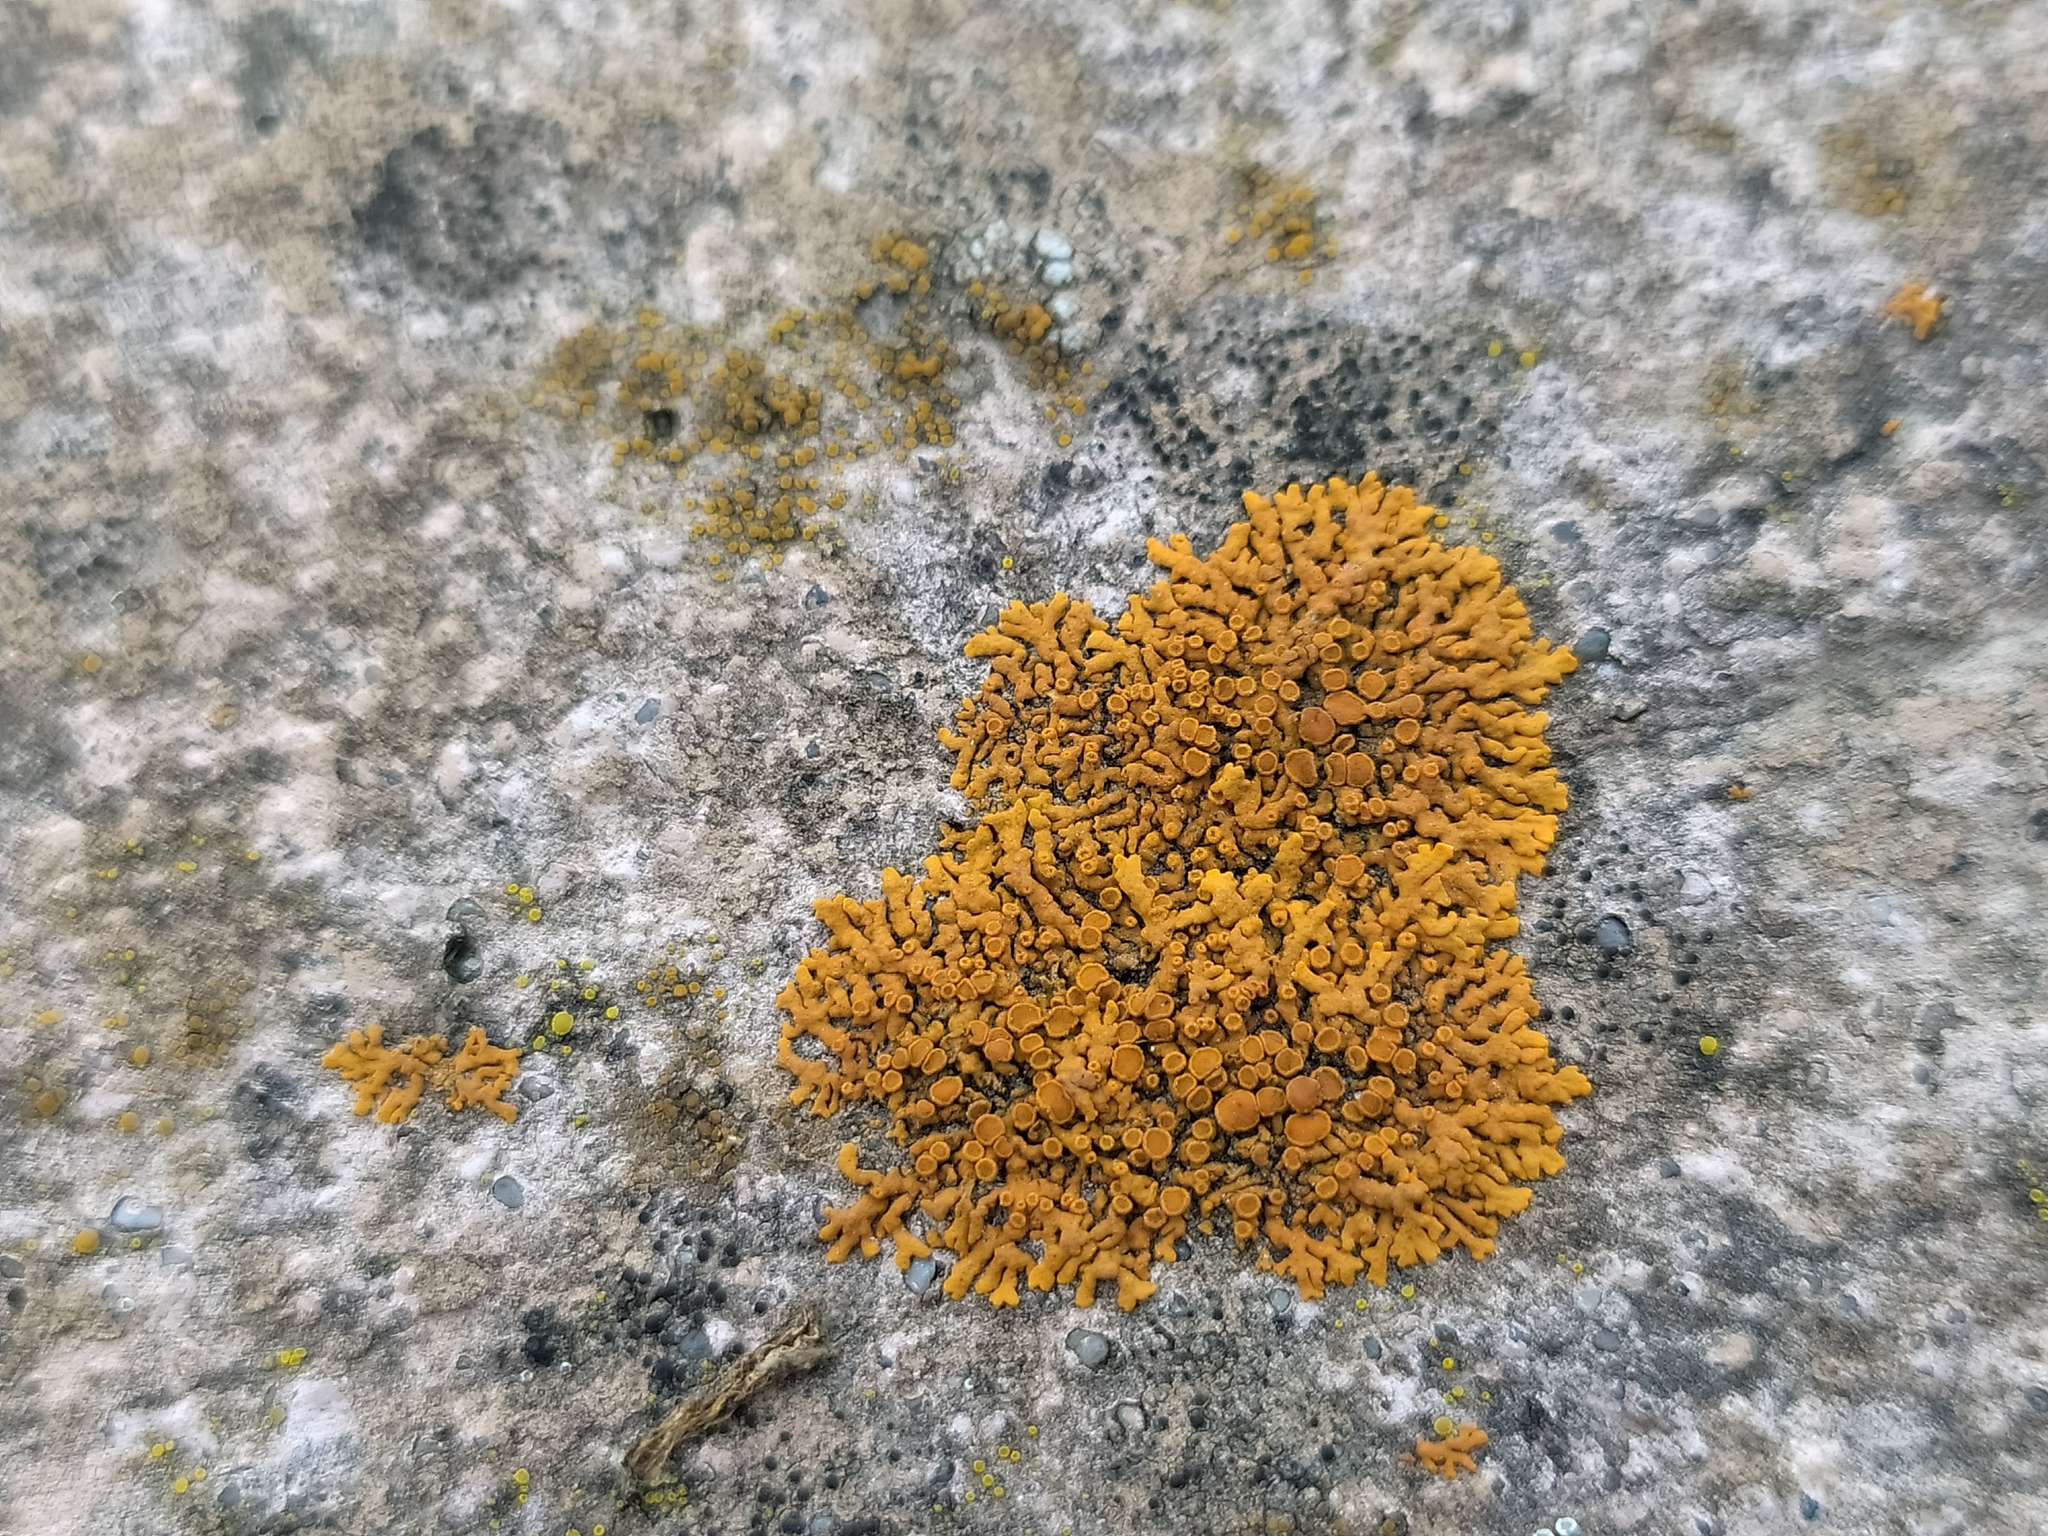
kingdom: Fungi
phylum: Ascomycota
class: Lecanoromycetes
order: Teloschistales
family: Teloschistaceae
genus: Xanthoria
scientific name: Xanthoria elegans
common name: Elegant sunburst lichen
